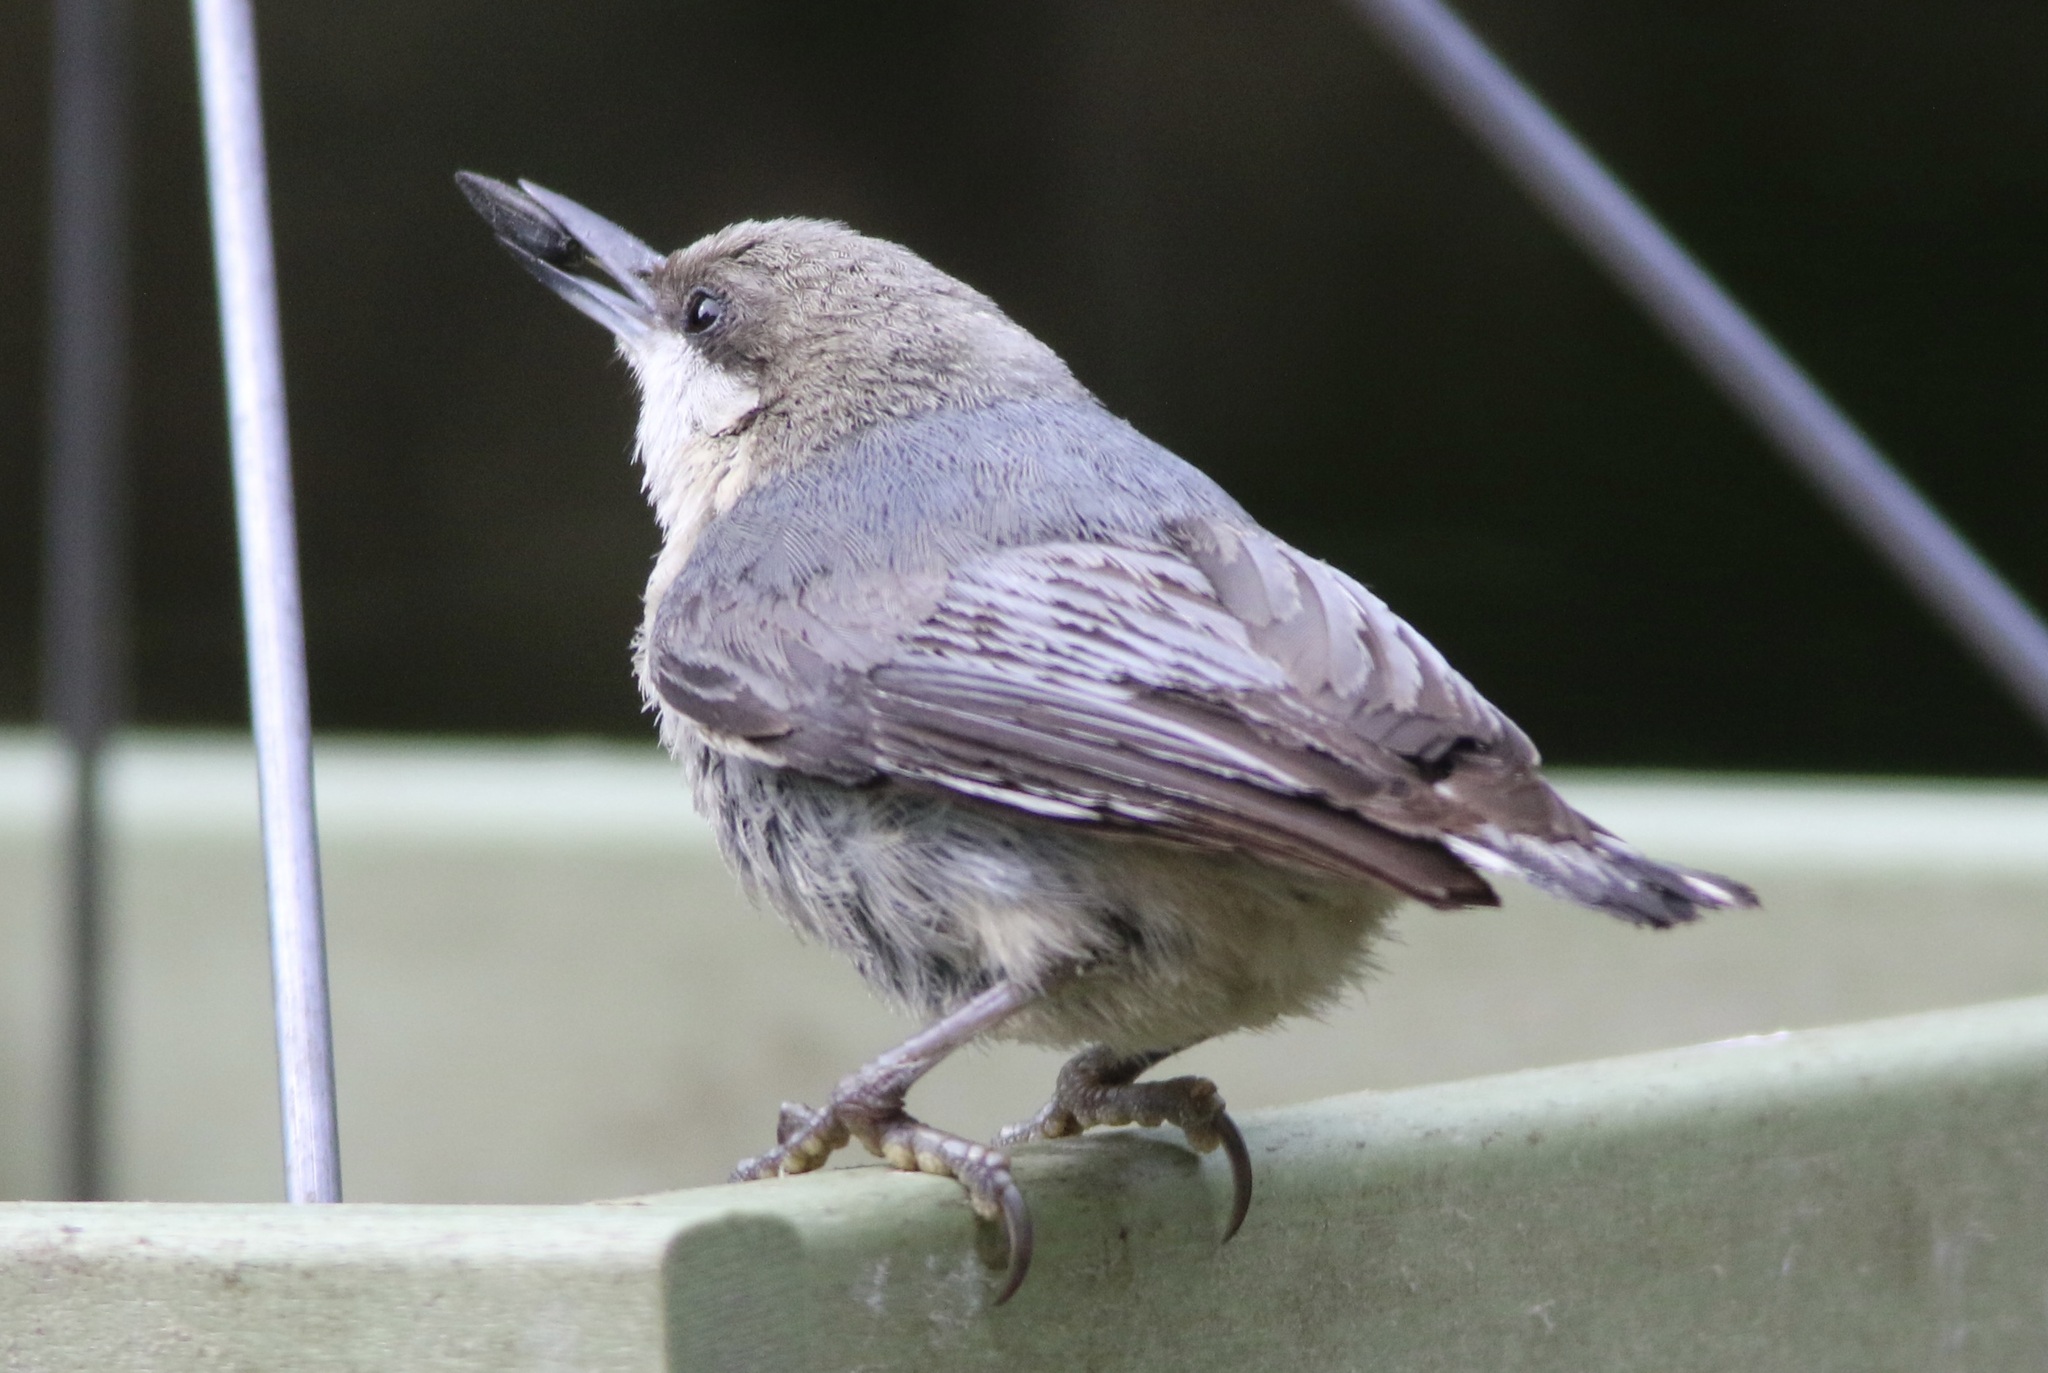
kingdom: Animalia
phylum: Chordata
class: Aves
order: Passeriformes
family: Sittidae
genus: Sitta
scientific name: Sitta pygmaea
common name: Pygmy nuthatch
